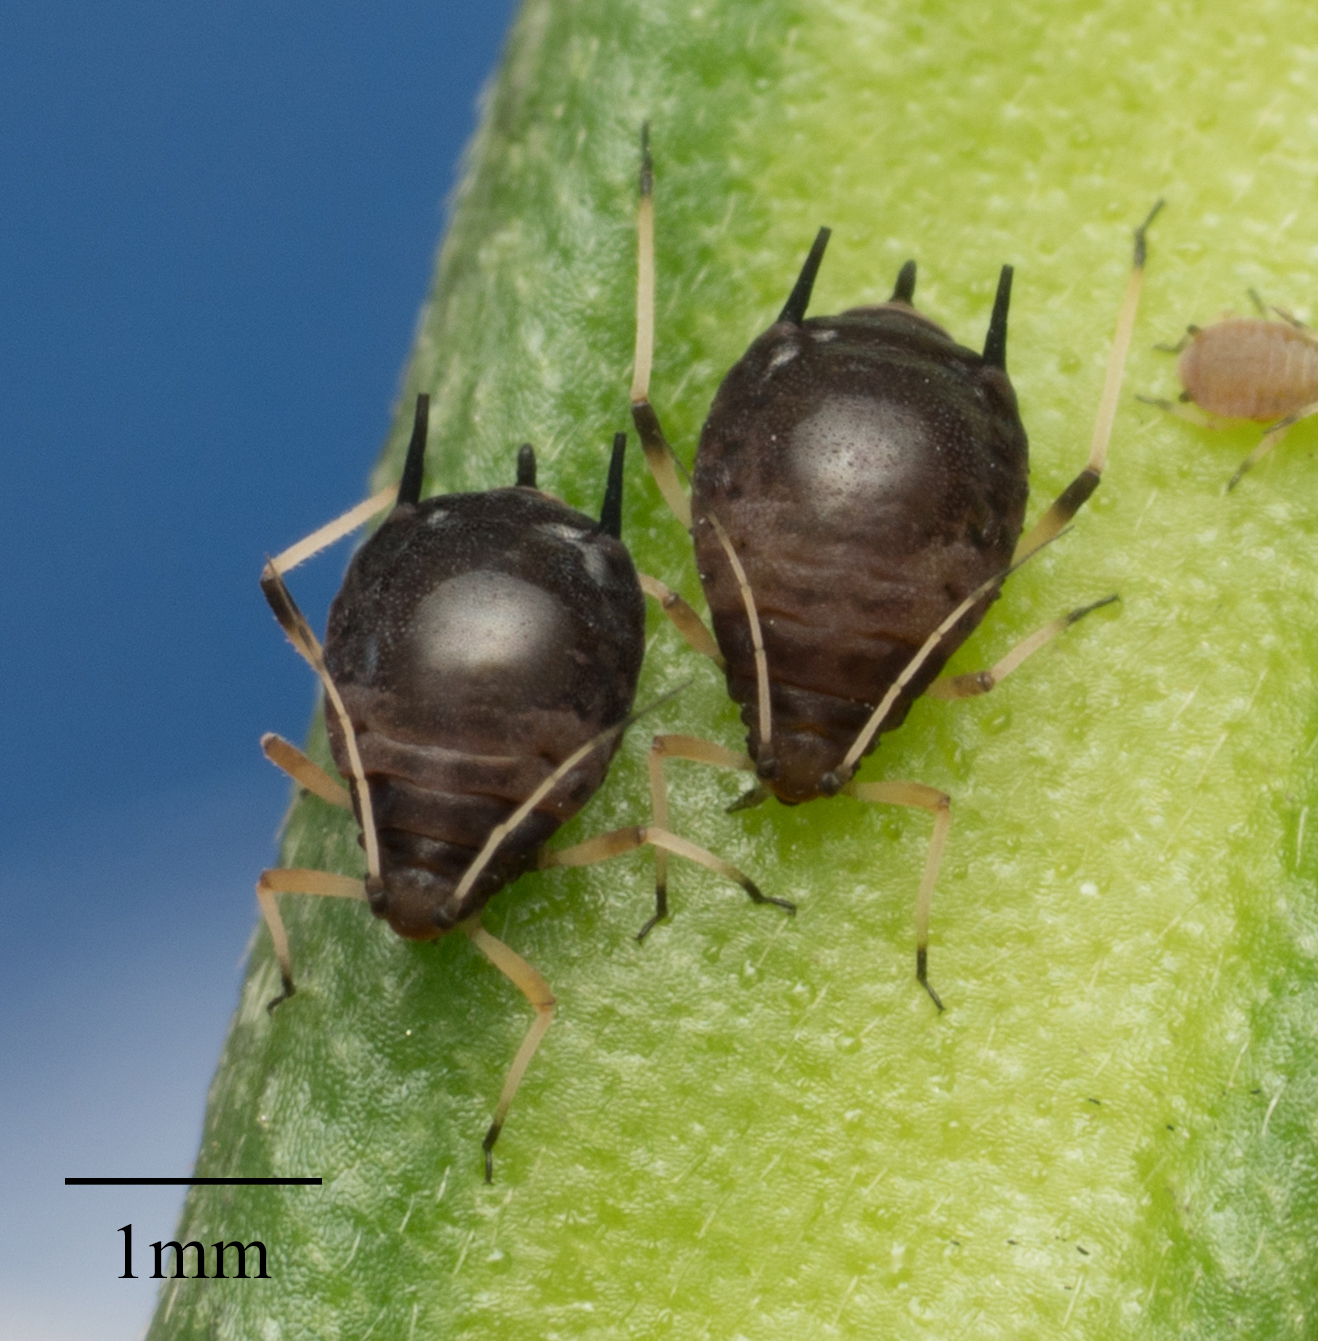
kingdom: Animalia
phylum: Arthropoda
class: Insecta
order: Hemiptera
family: Aphididae
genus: Aphis
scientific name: Aphis craccivora
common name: Cowpea aphid
